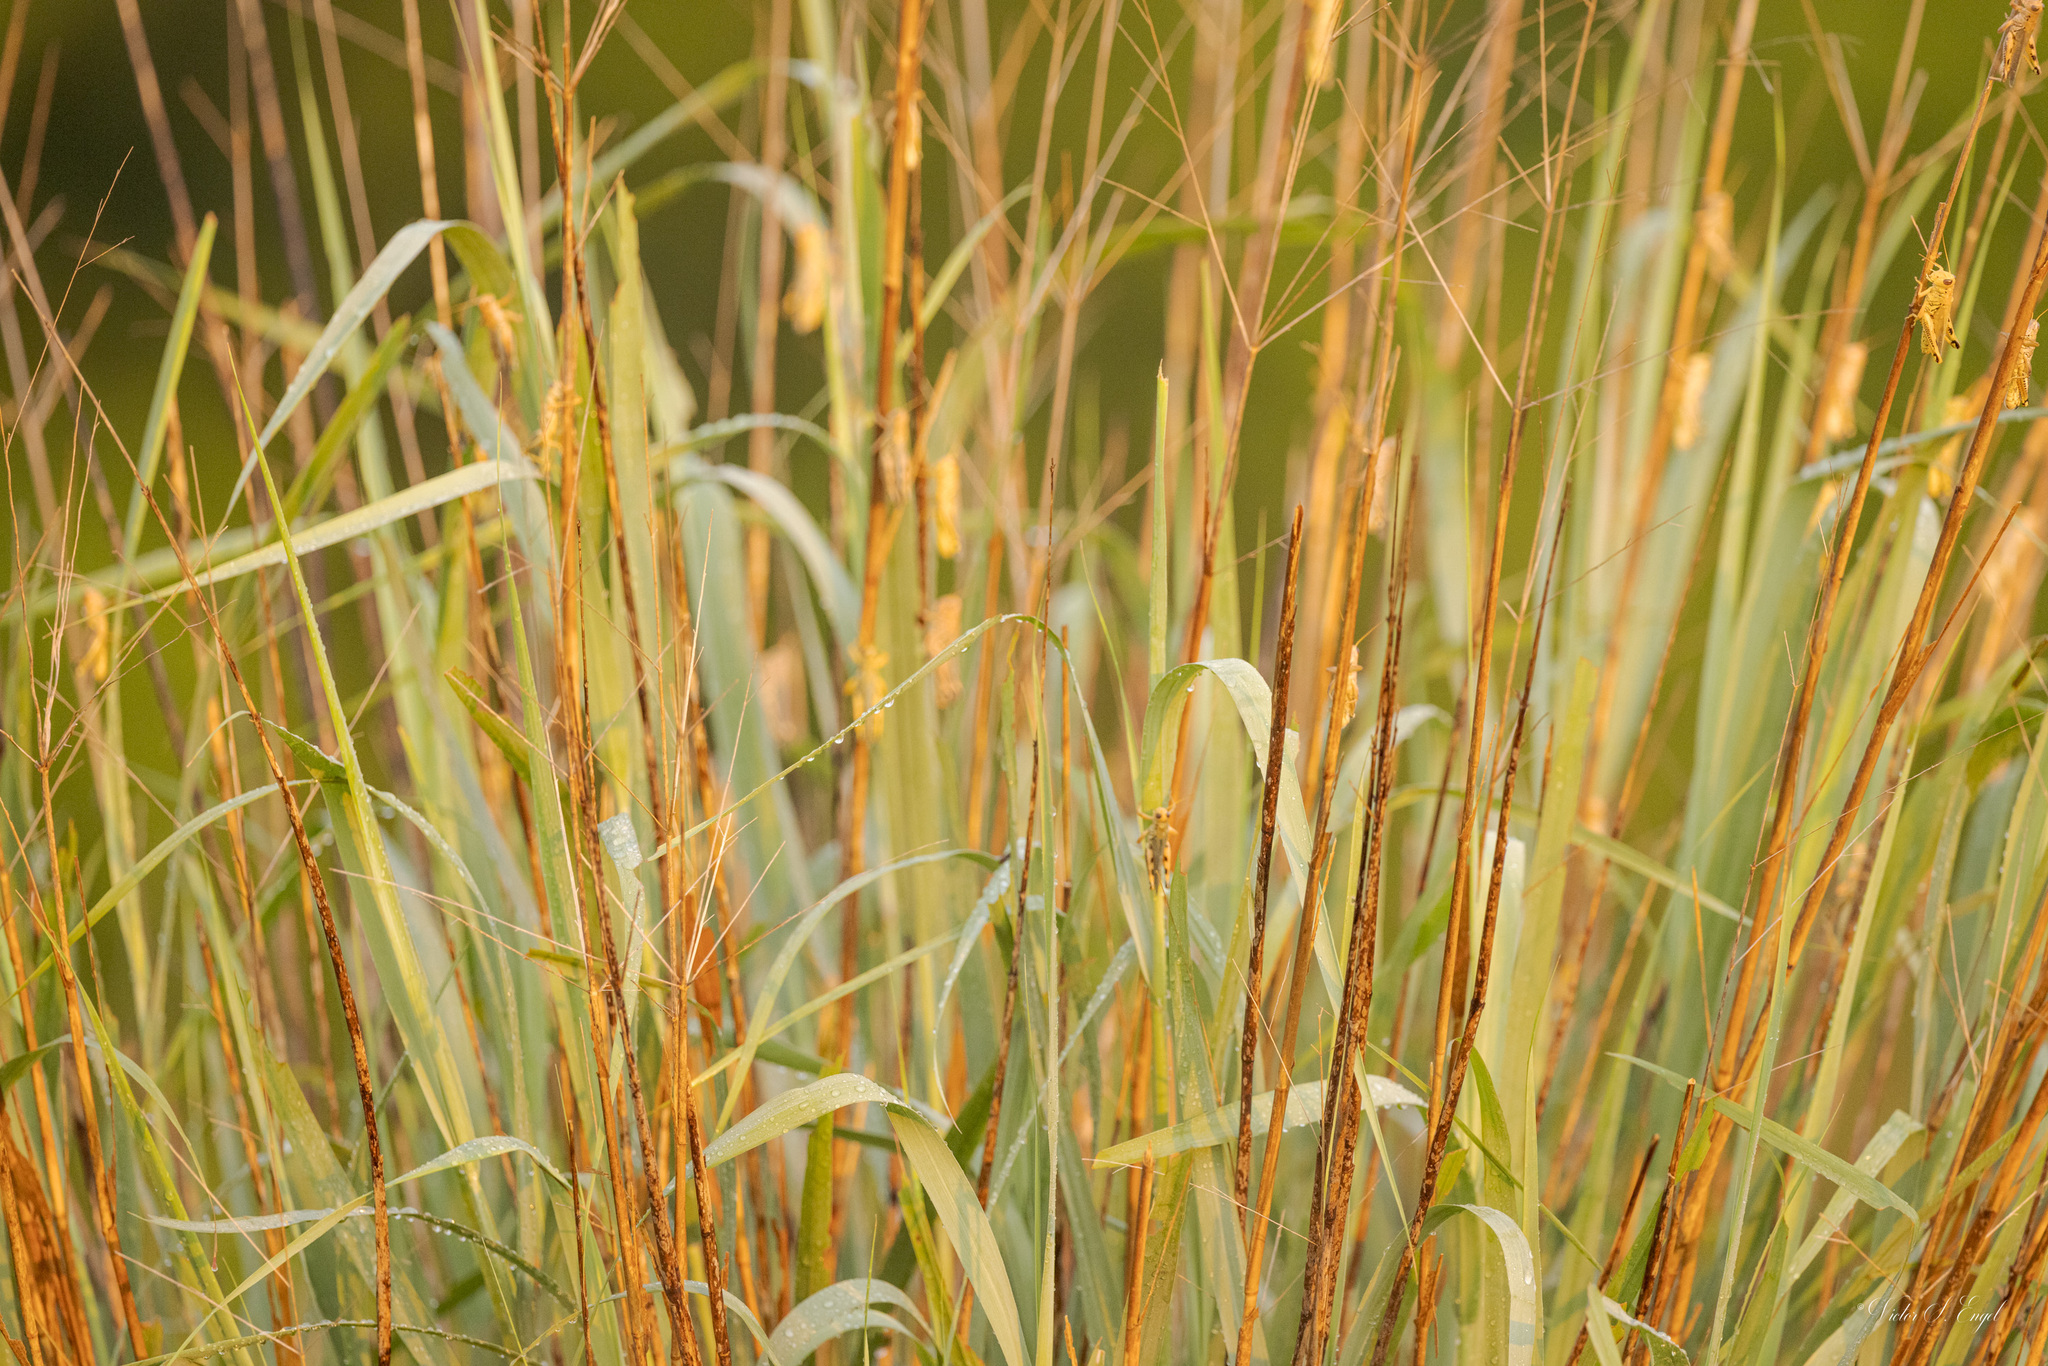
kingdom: Plantae
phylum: Tracheophyta
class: Liliopsida
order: Poales
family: Poaceae
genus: Panicum
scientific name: Panicum virgatum
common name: Switchgrass
